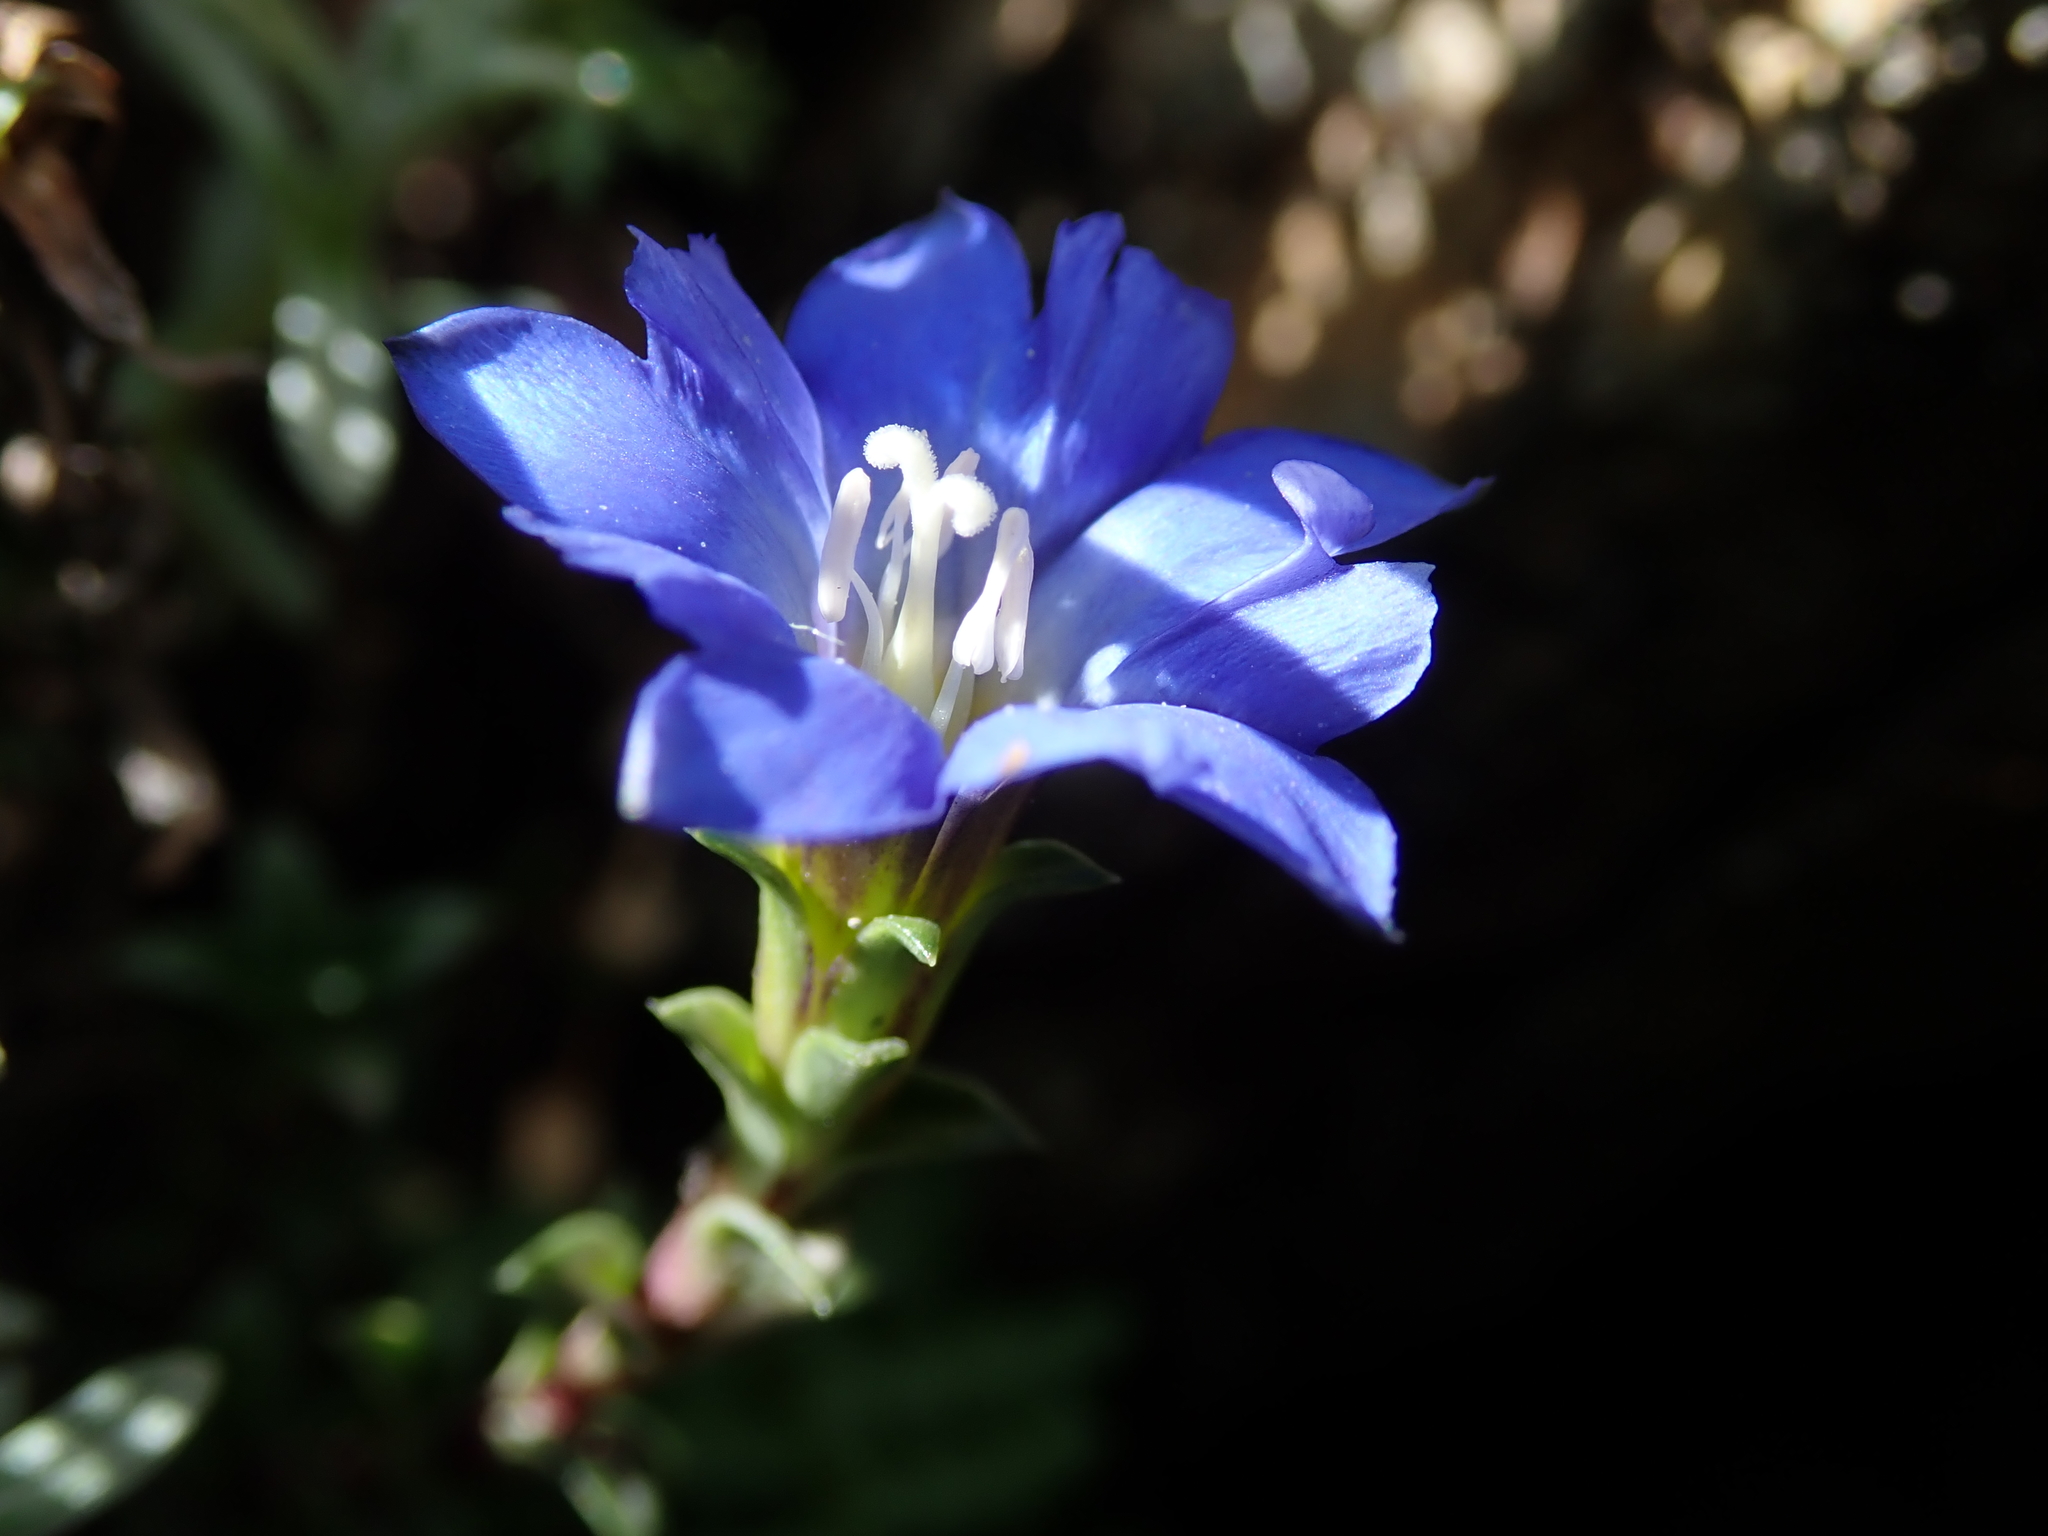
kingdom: Plantae
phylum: Tracheophyta
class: Magnoliopsida
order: Gentianales
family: Gentianaceae
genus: Gentiana
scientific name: Gentiana arisanensis
